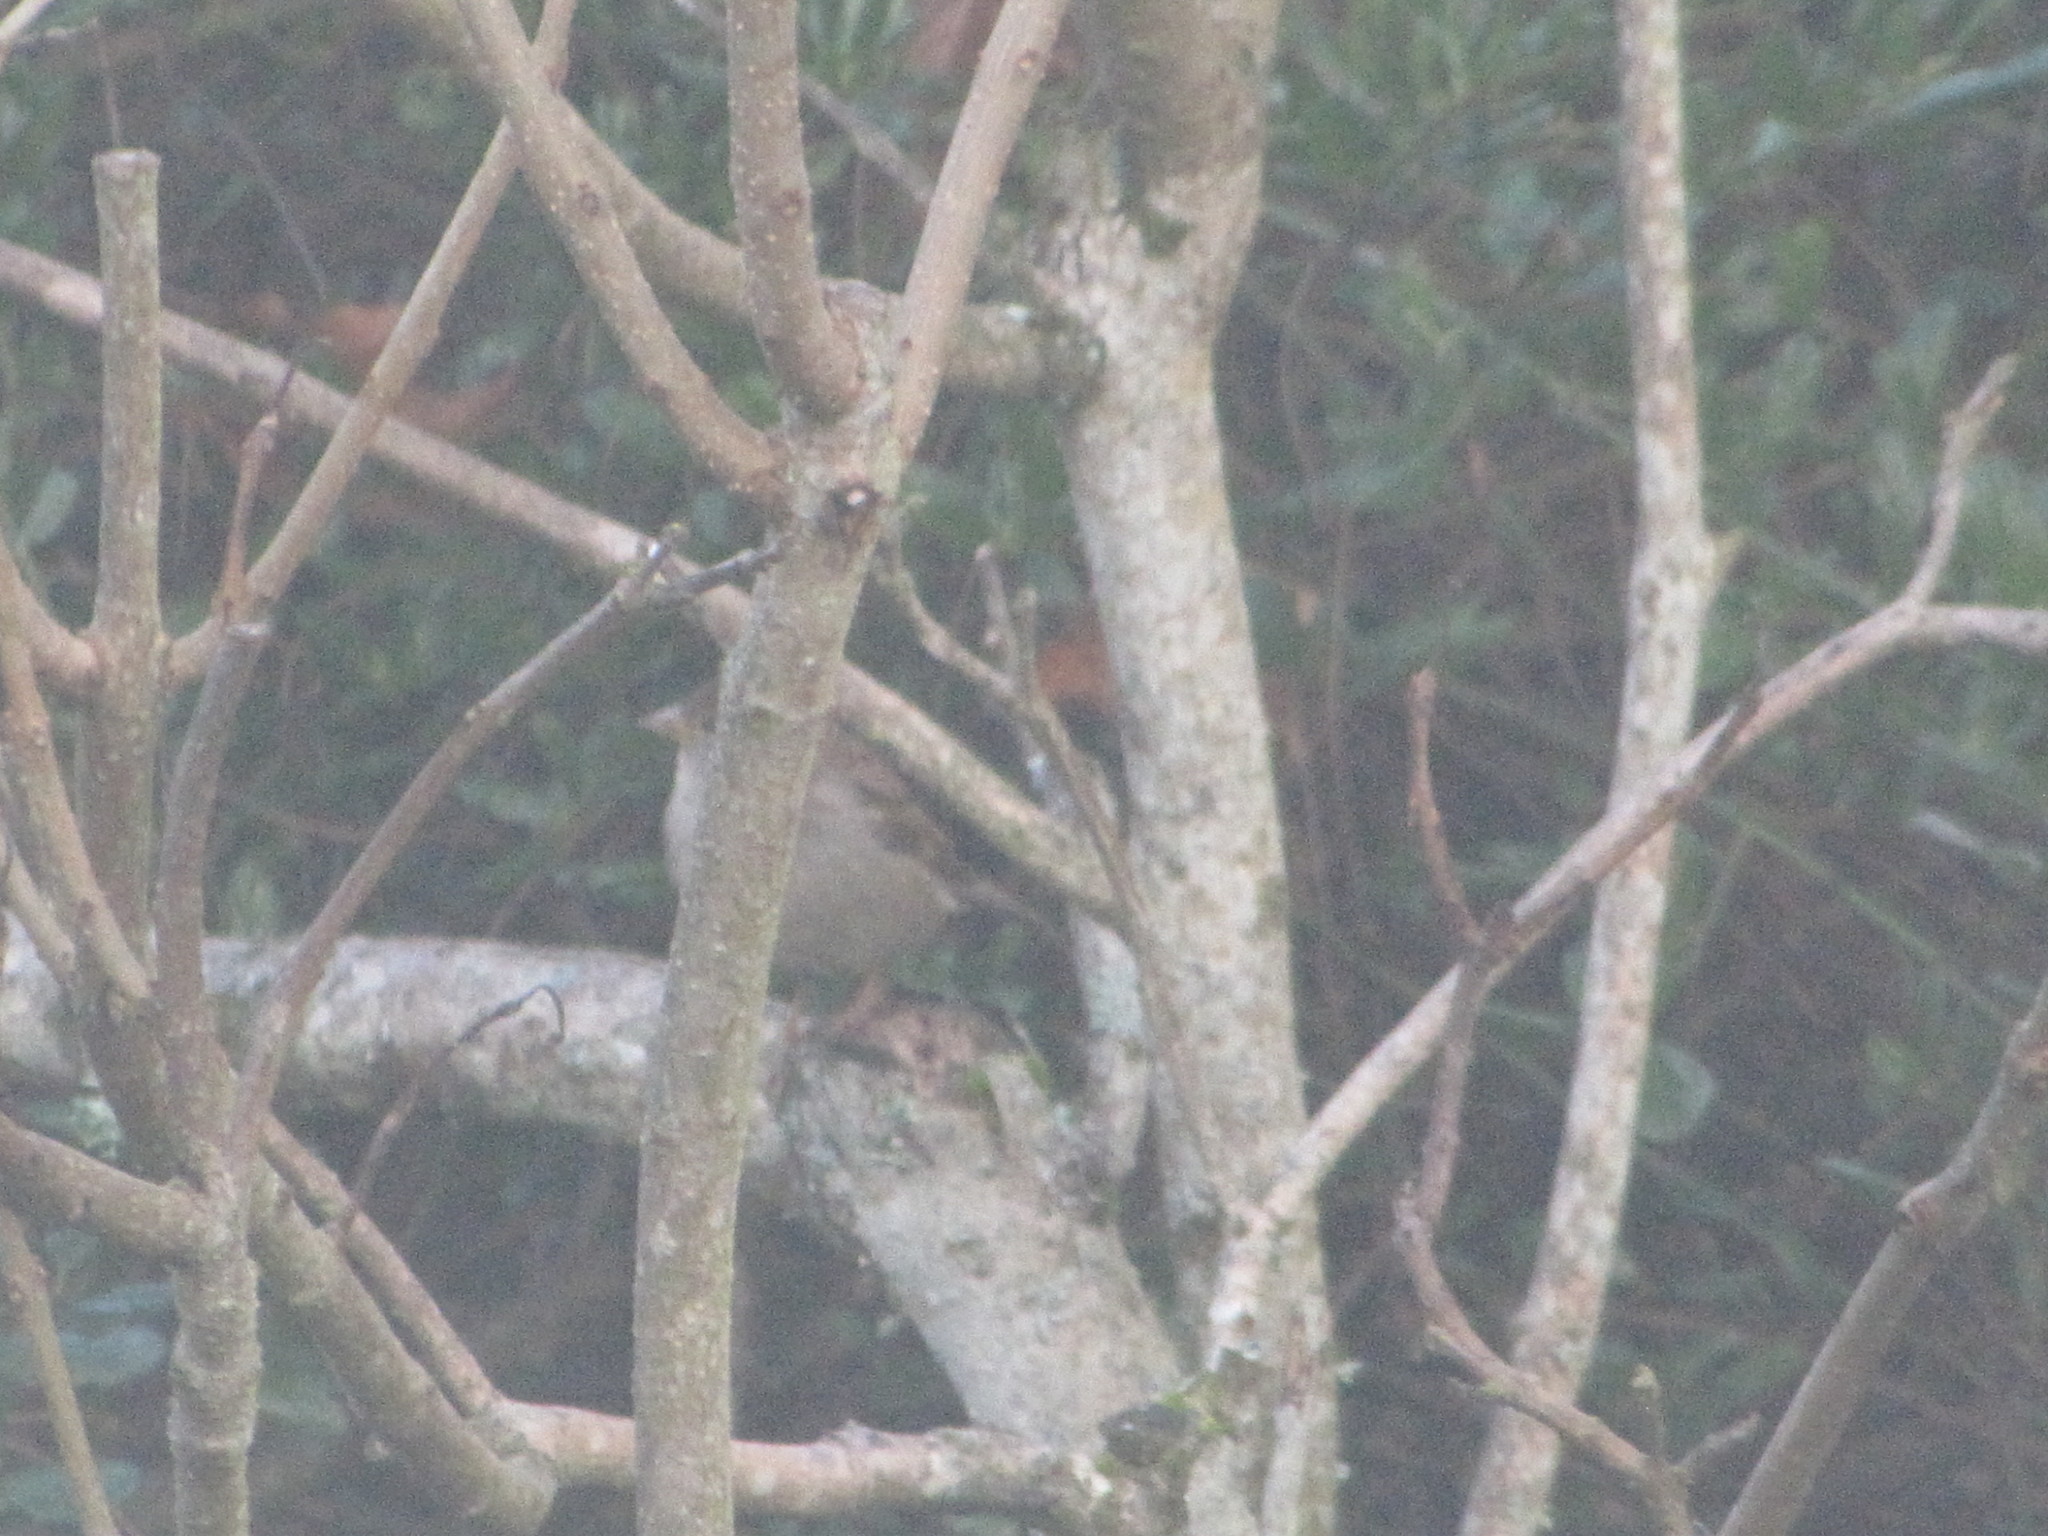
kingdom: Animalia
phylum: Chordata
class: Aves
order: Passeriformes
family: Passeridae
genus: Passer
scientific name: Passer domesticus
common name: House sparrow
